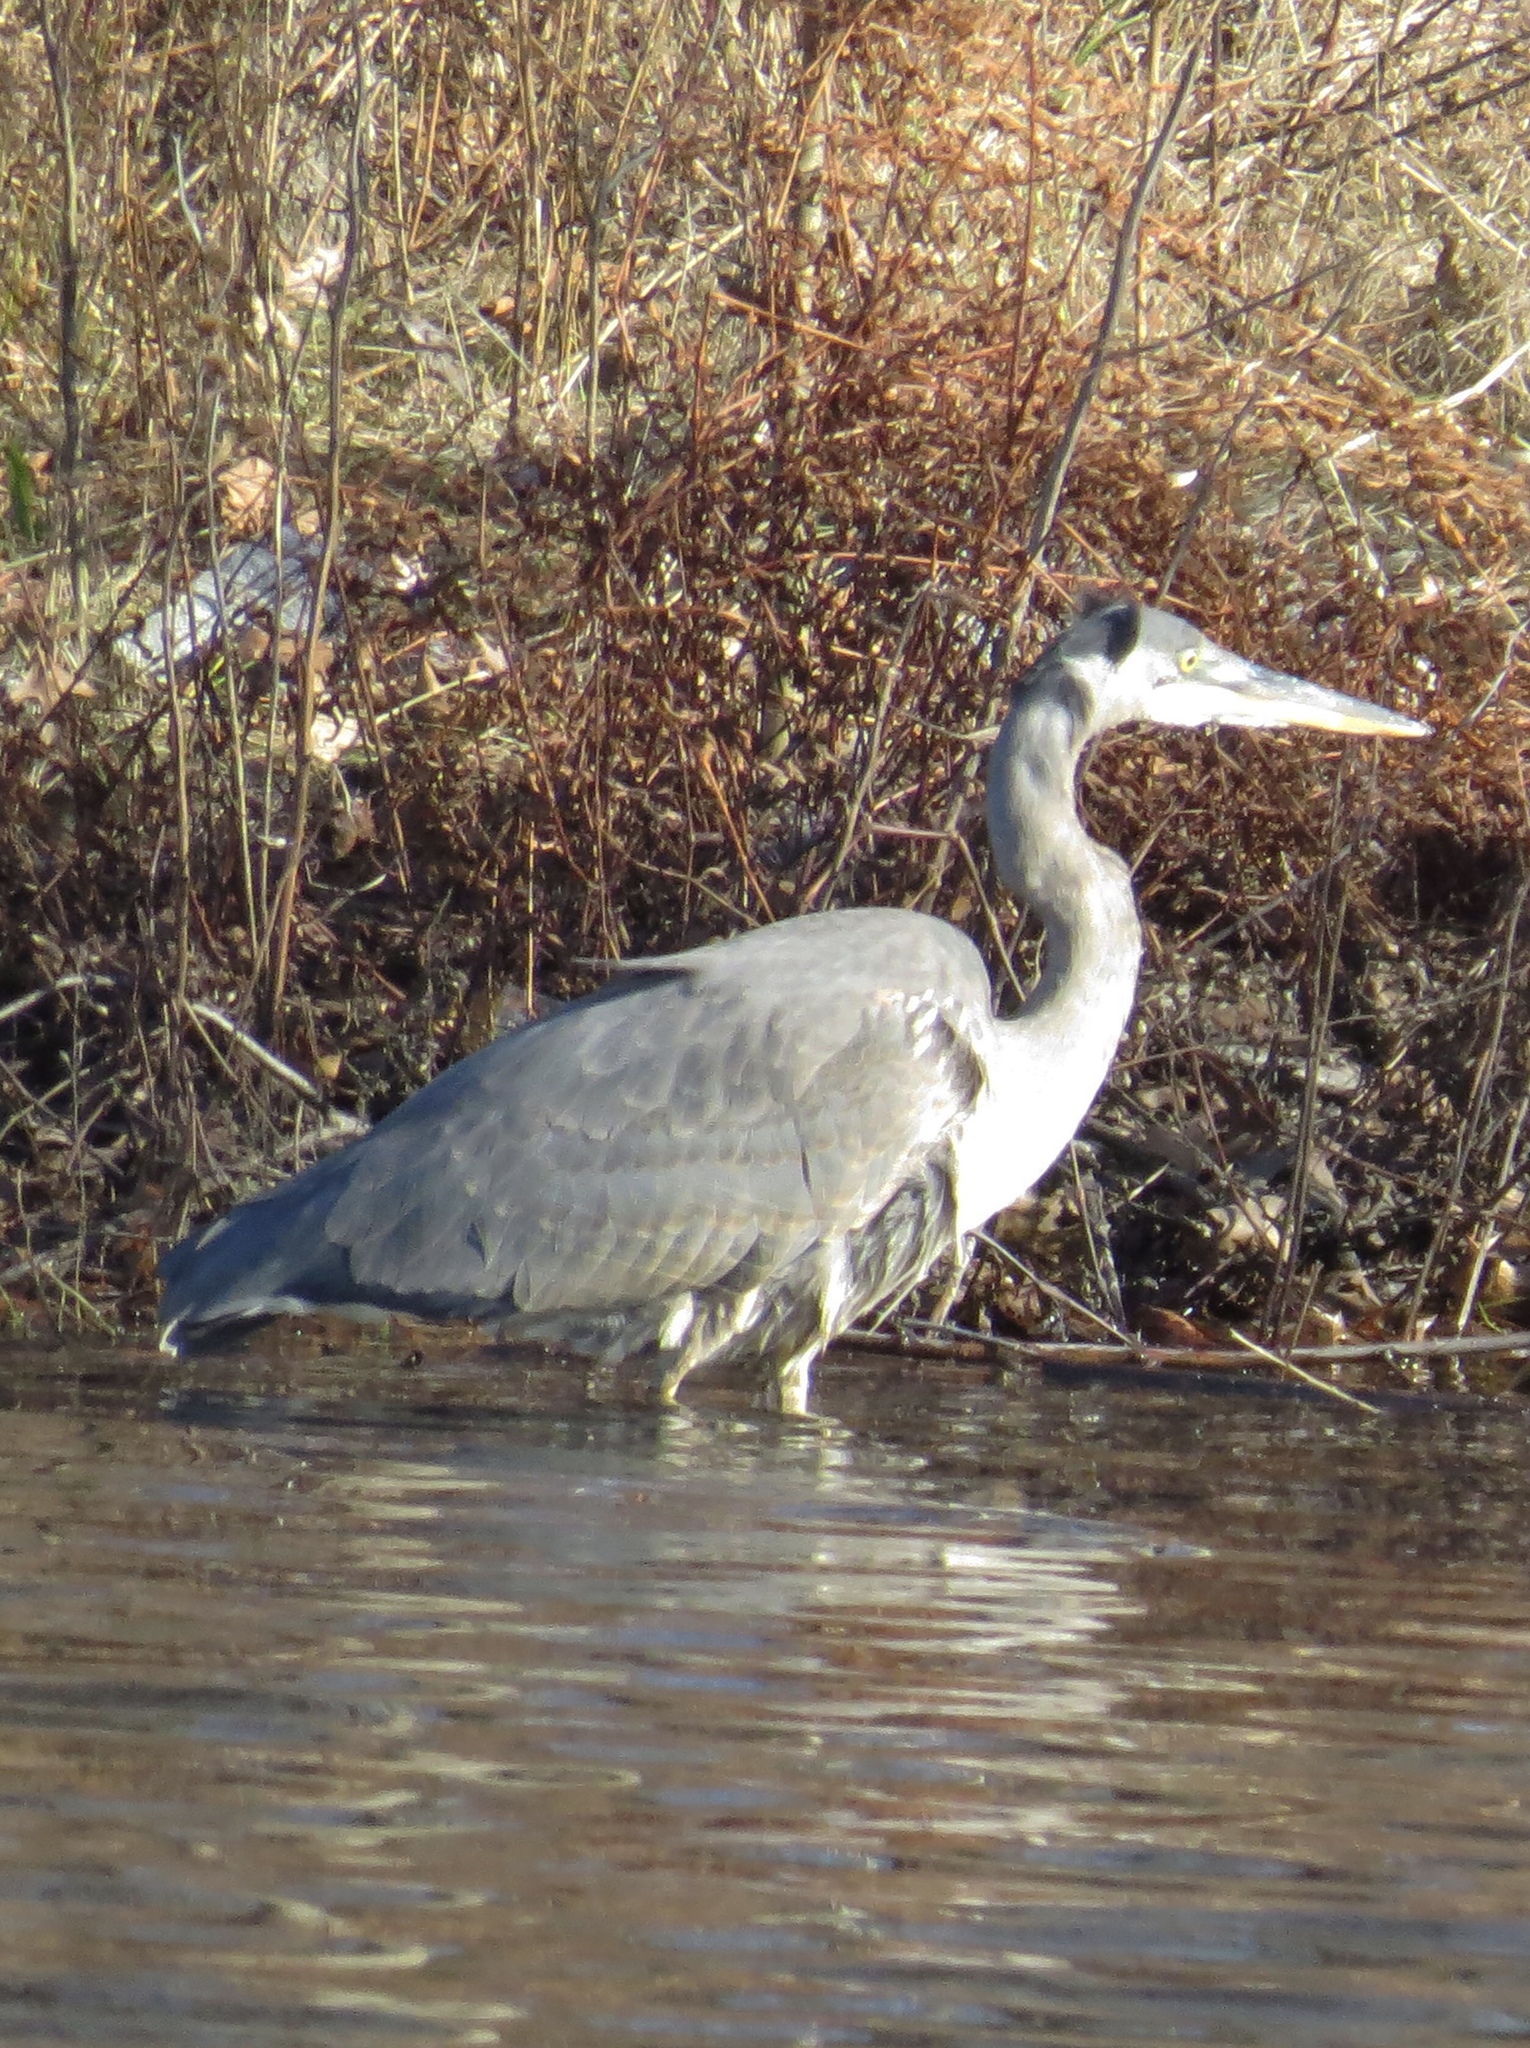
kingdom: Animalia
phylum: Chordata
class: Aves
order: Pelecaniformes
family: Ardeidae
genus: Ardea
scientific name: Ardea herodias
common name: Great blue heron
